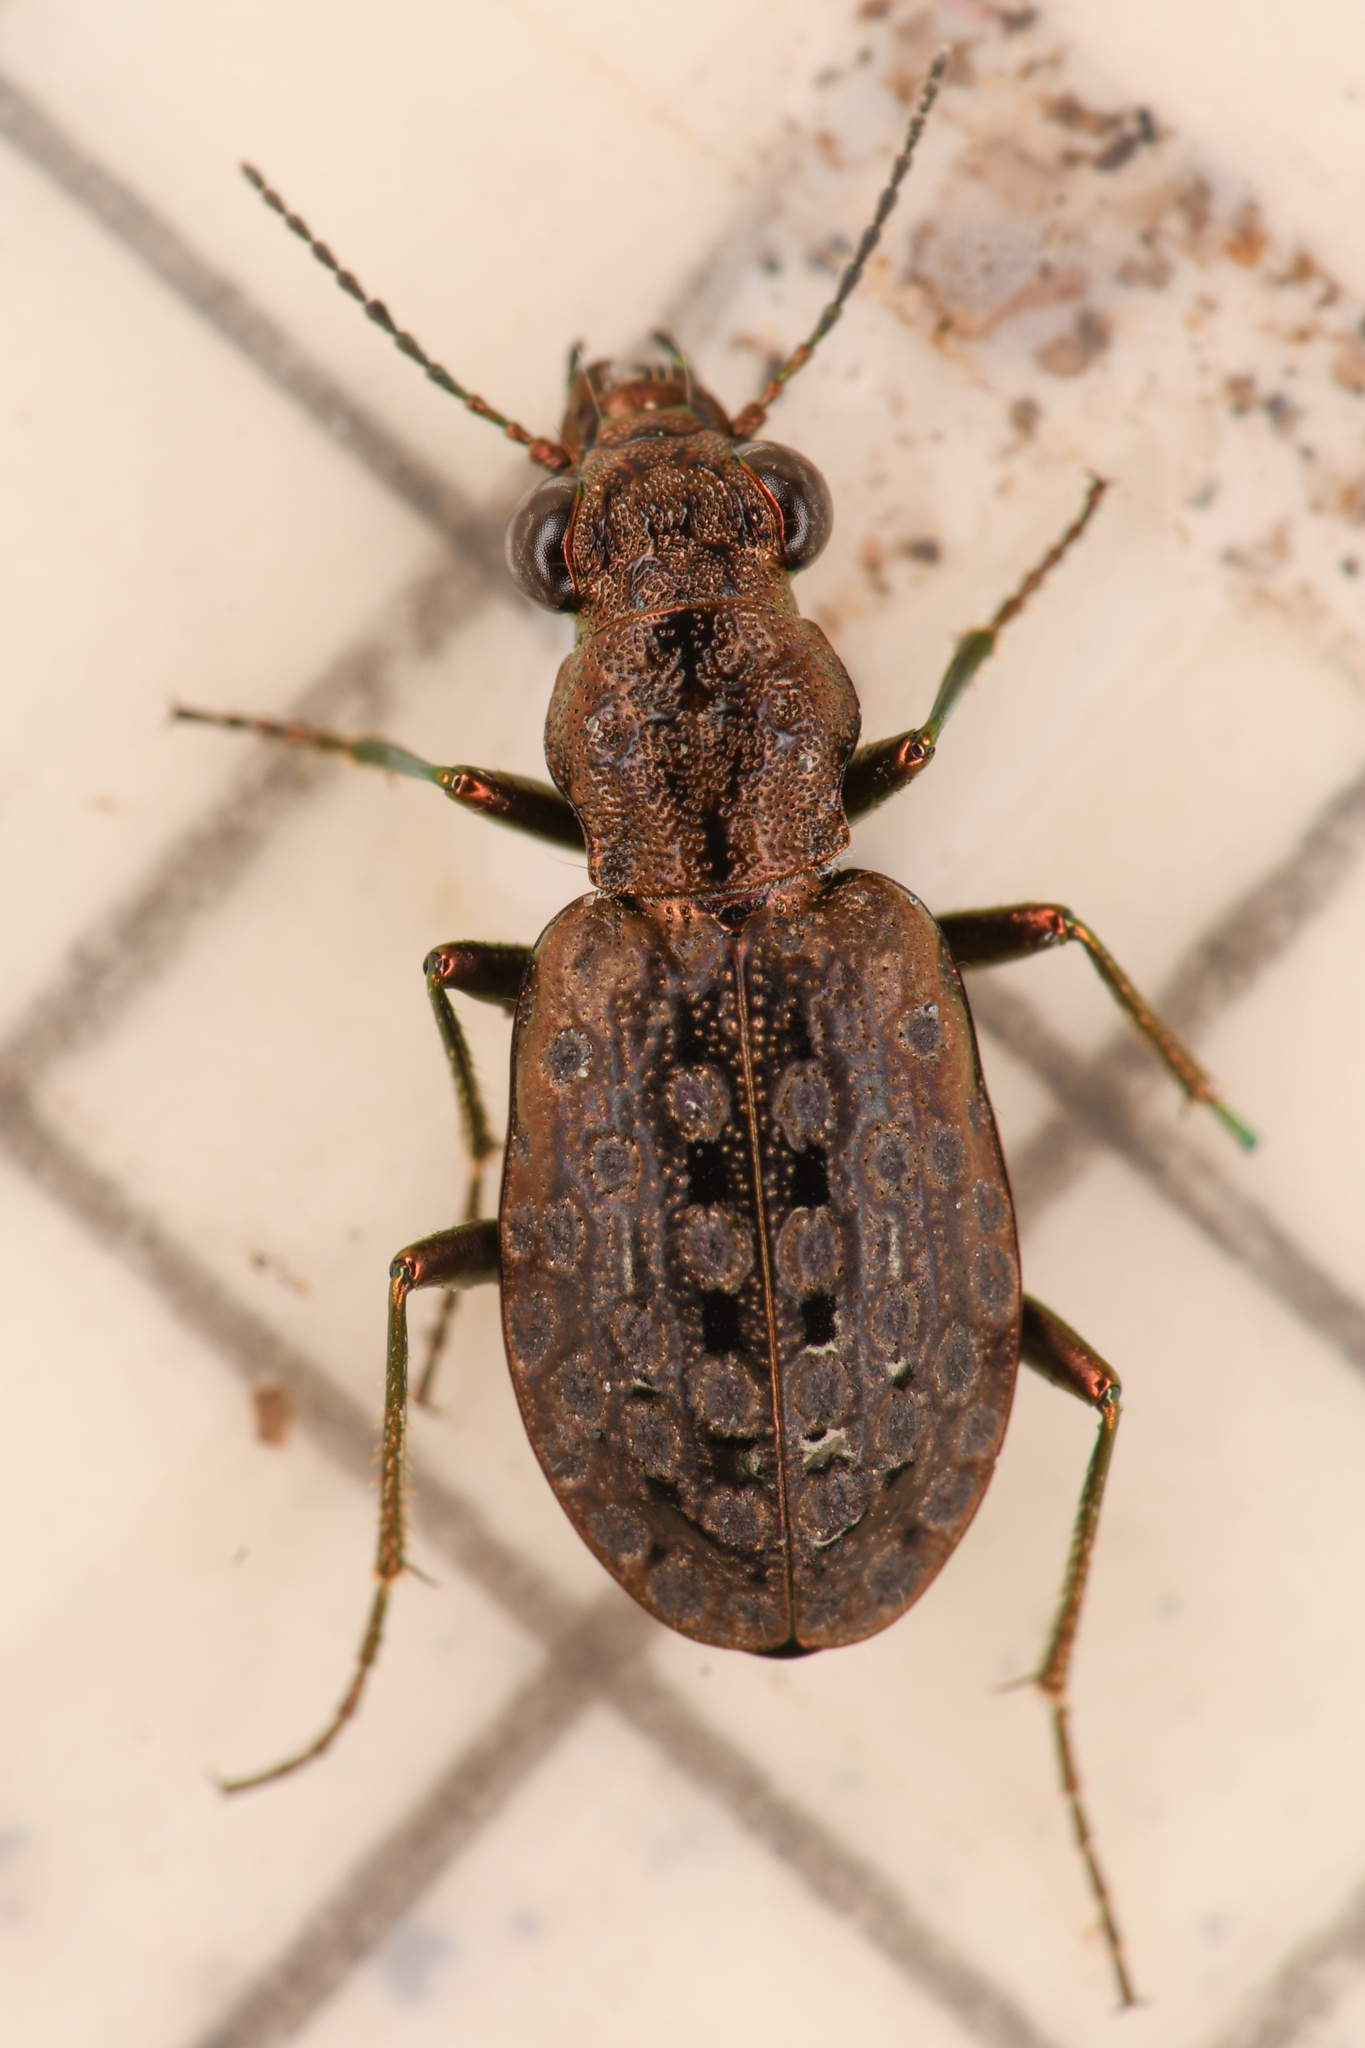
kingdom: Animalia
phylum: Arthropoda
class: Insecta
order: Coleoptera
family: Carabidae
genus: Elaphrus
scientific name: Elaphrus lapponicus
